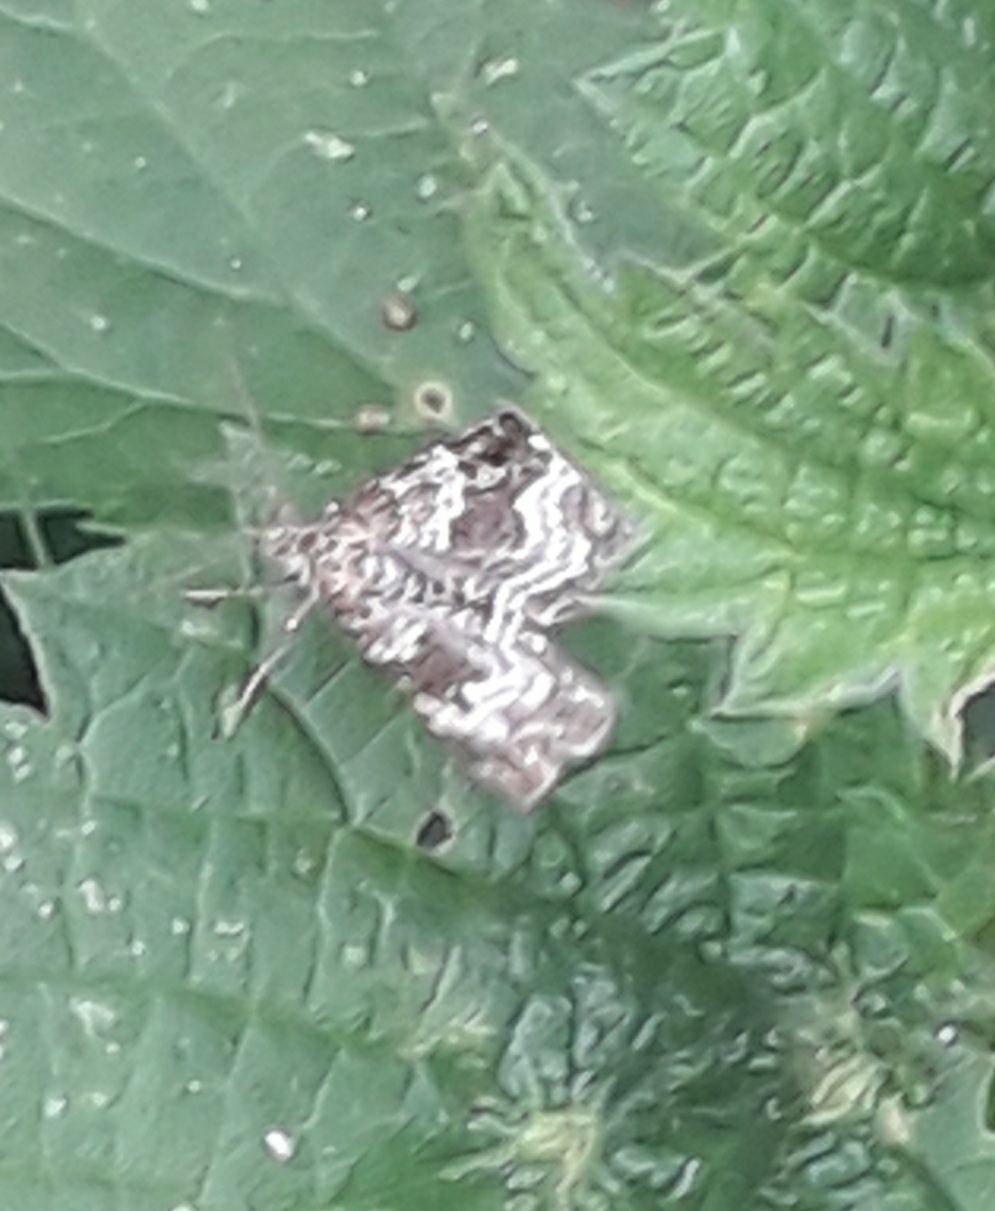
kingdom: Animalia
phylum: Arthropoda
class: Insecta
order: Lepidoptera
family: Geometridae
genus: Epirrhoe
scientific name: Epirrhoe alternata
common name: Common carpet
